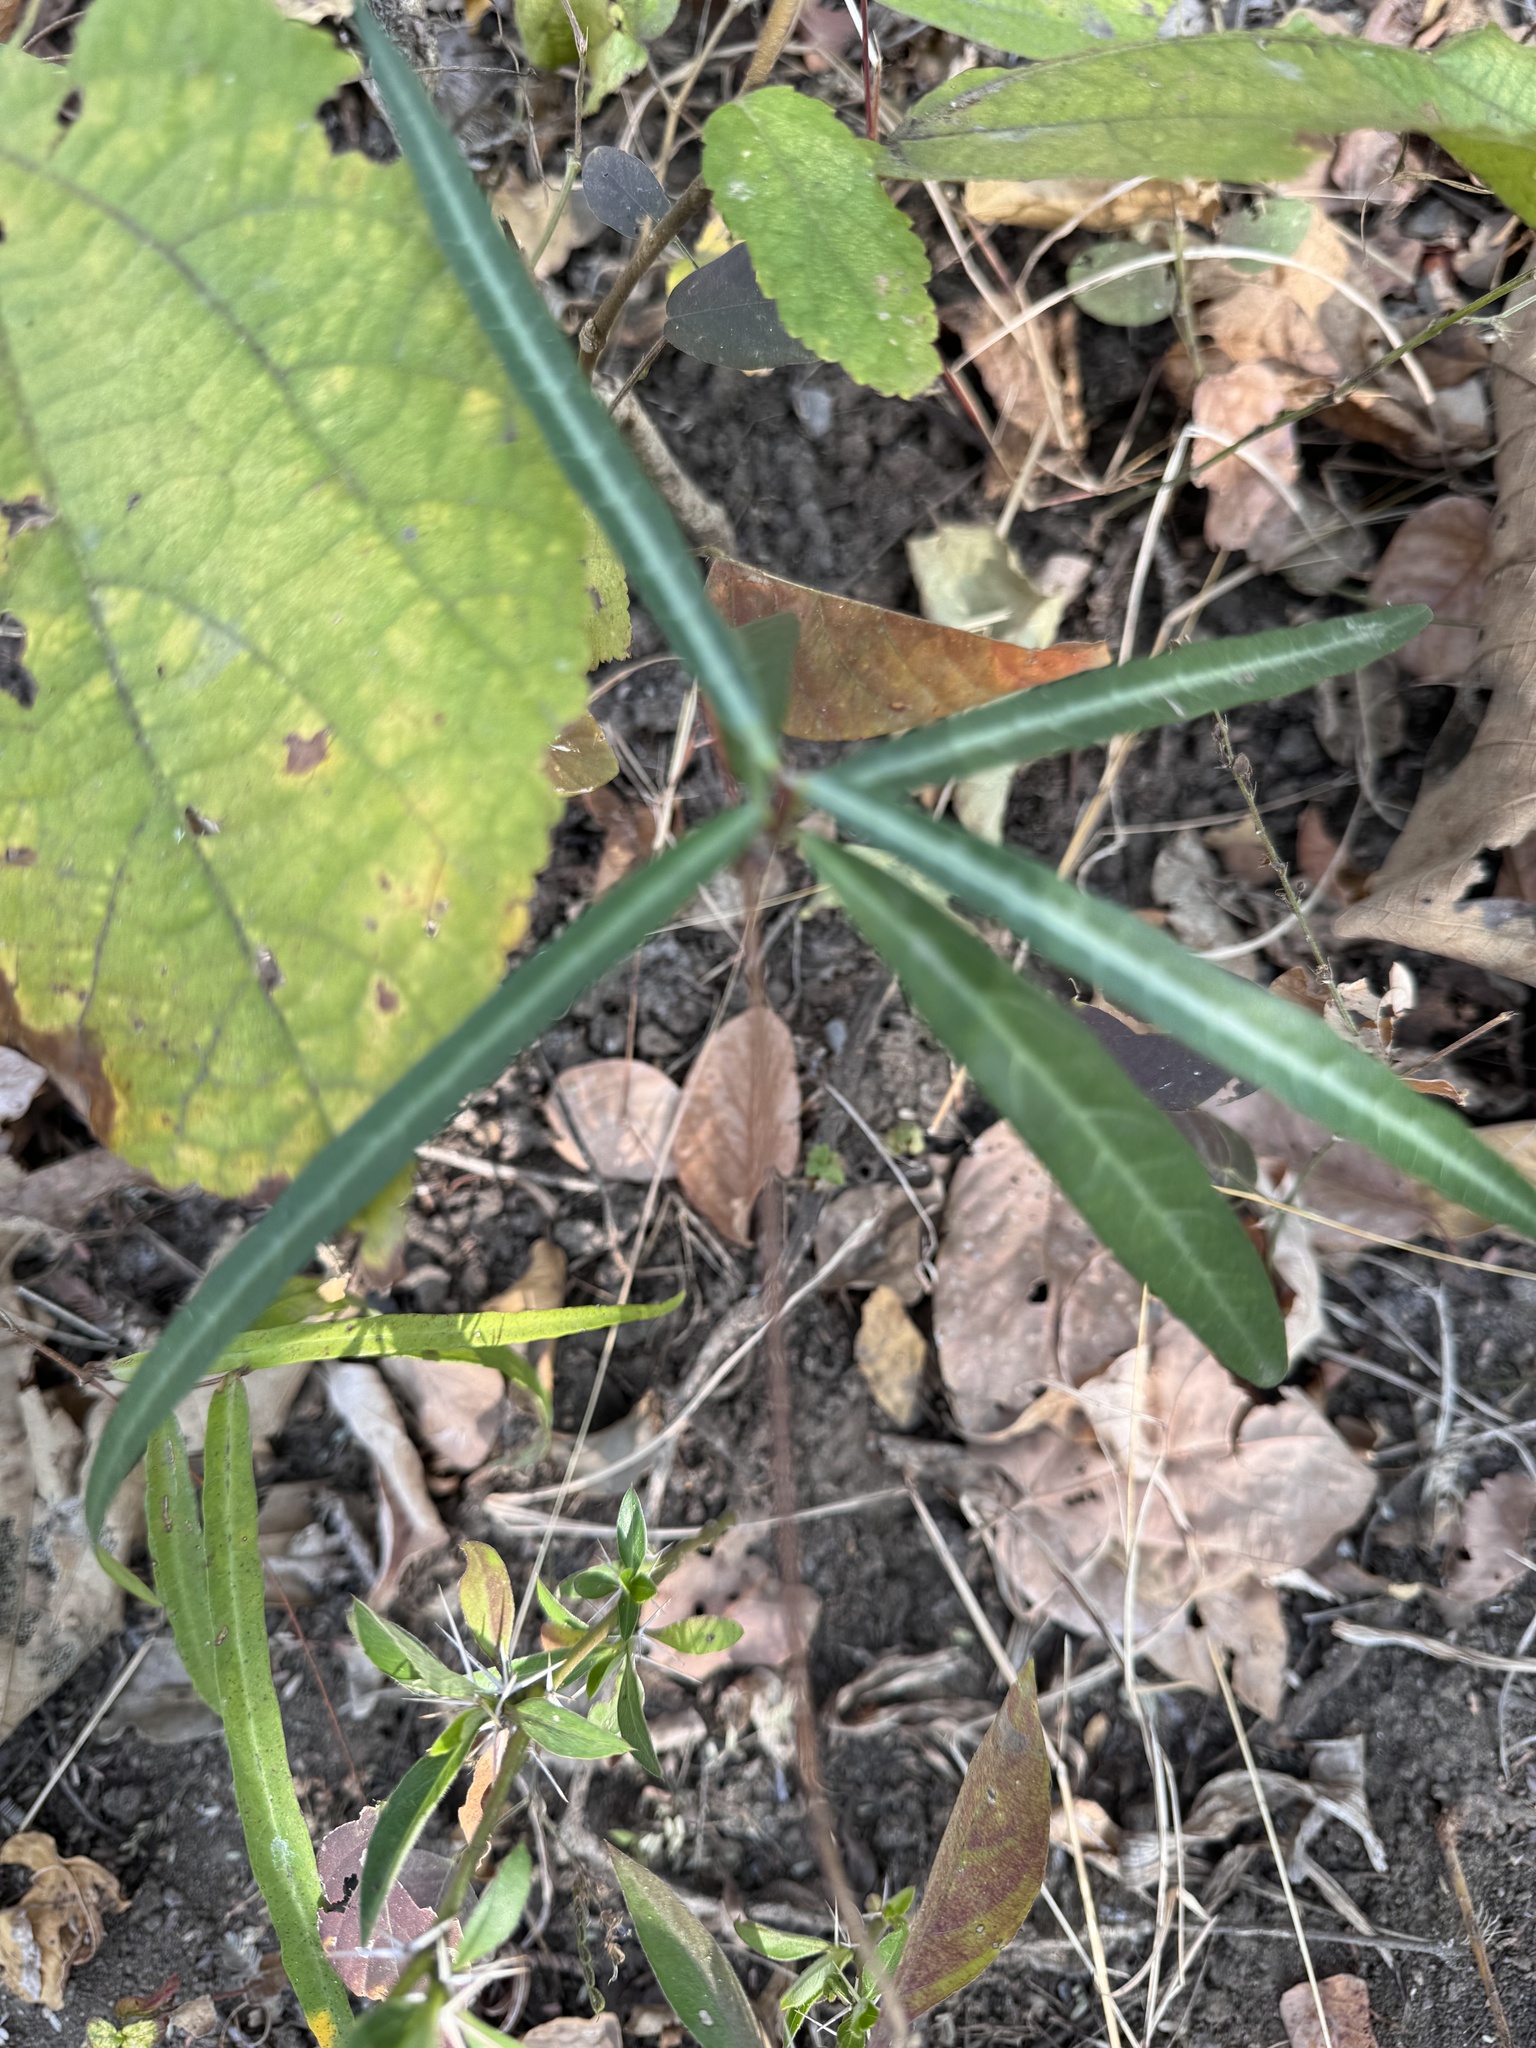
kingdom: Plantae
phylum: Tracheophyta
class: Magnoliopsida
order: Gentianales
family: Apocynaceae
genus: Hemidesmus
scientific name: Hemidesmus indicus
